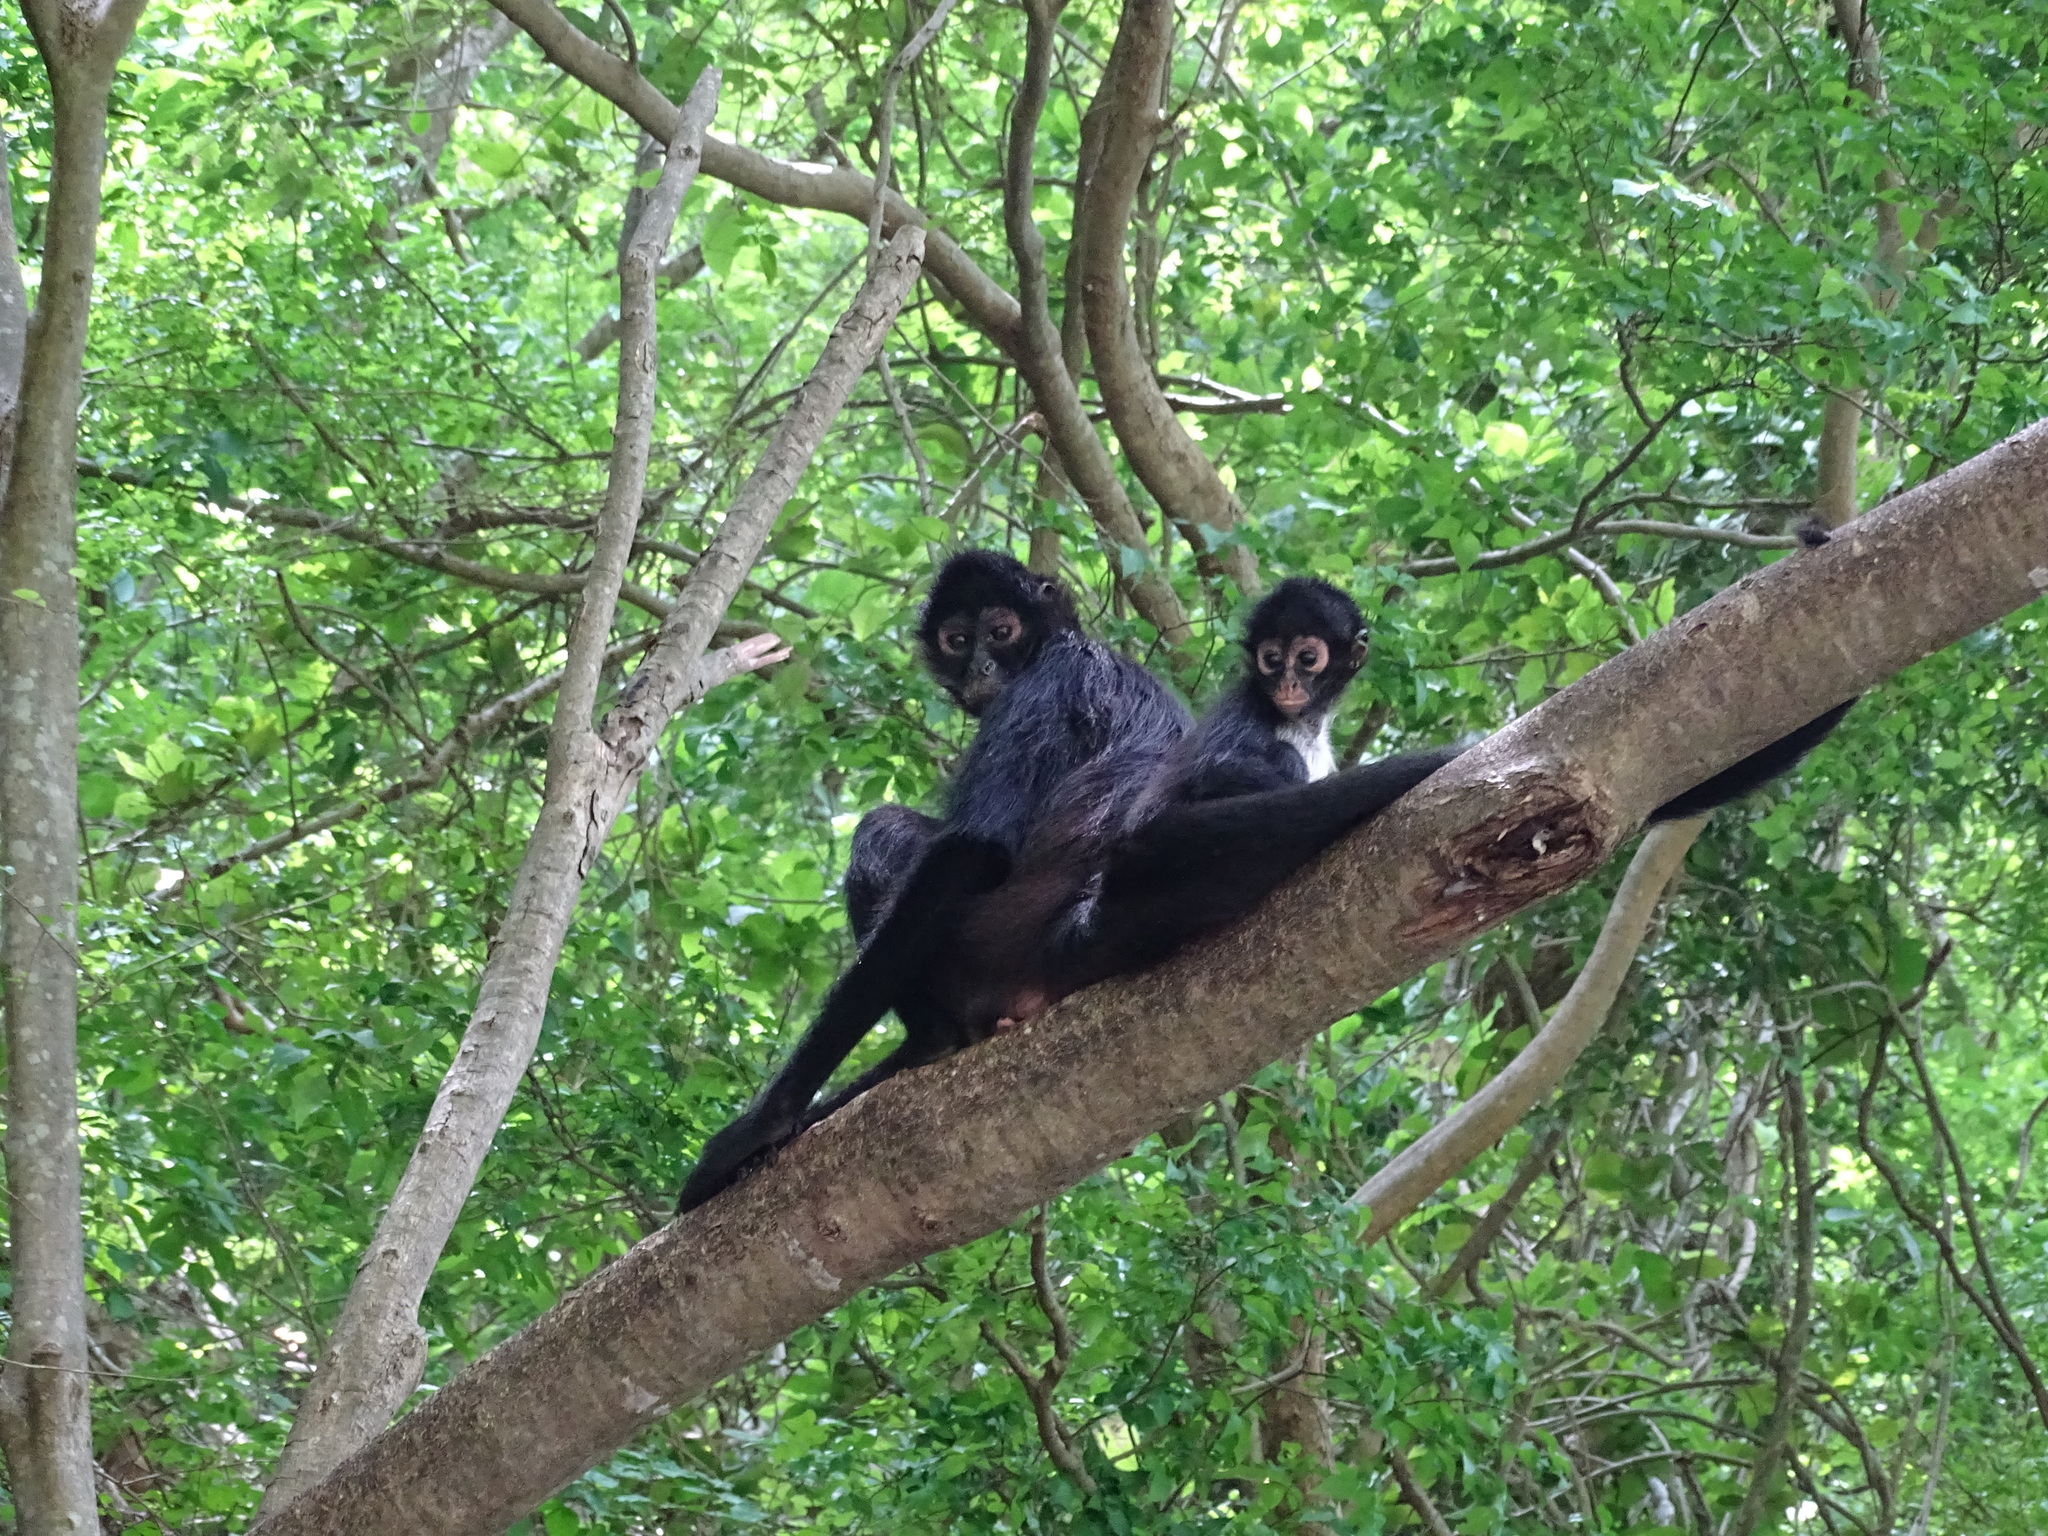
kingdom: Animalia
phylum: Chordata
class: Mammalia
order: Primates
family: Atelidae
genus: Ateles
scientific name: Ateles geoffroyi
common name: Black-handed spider monkey
